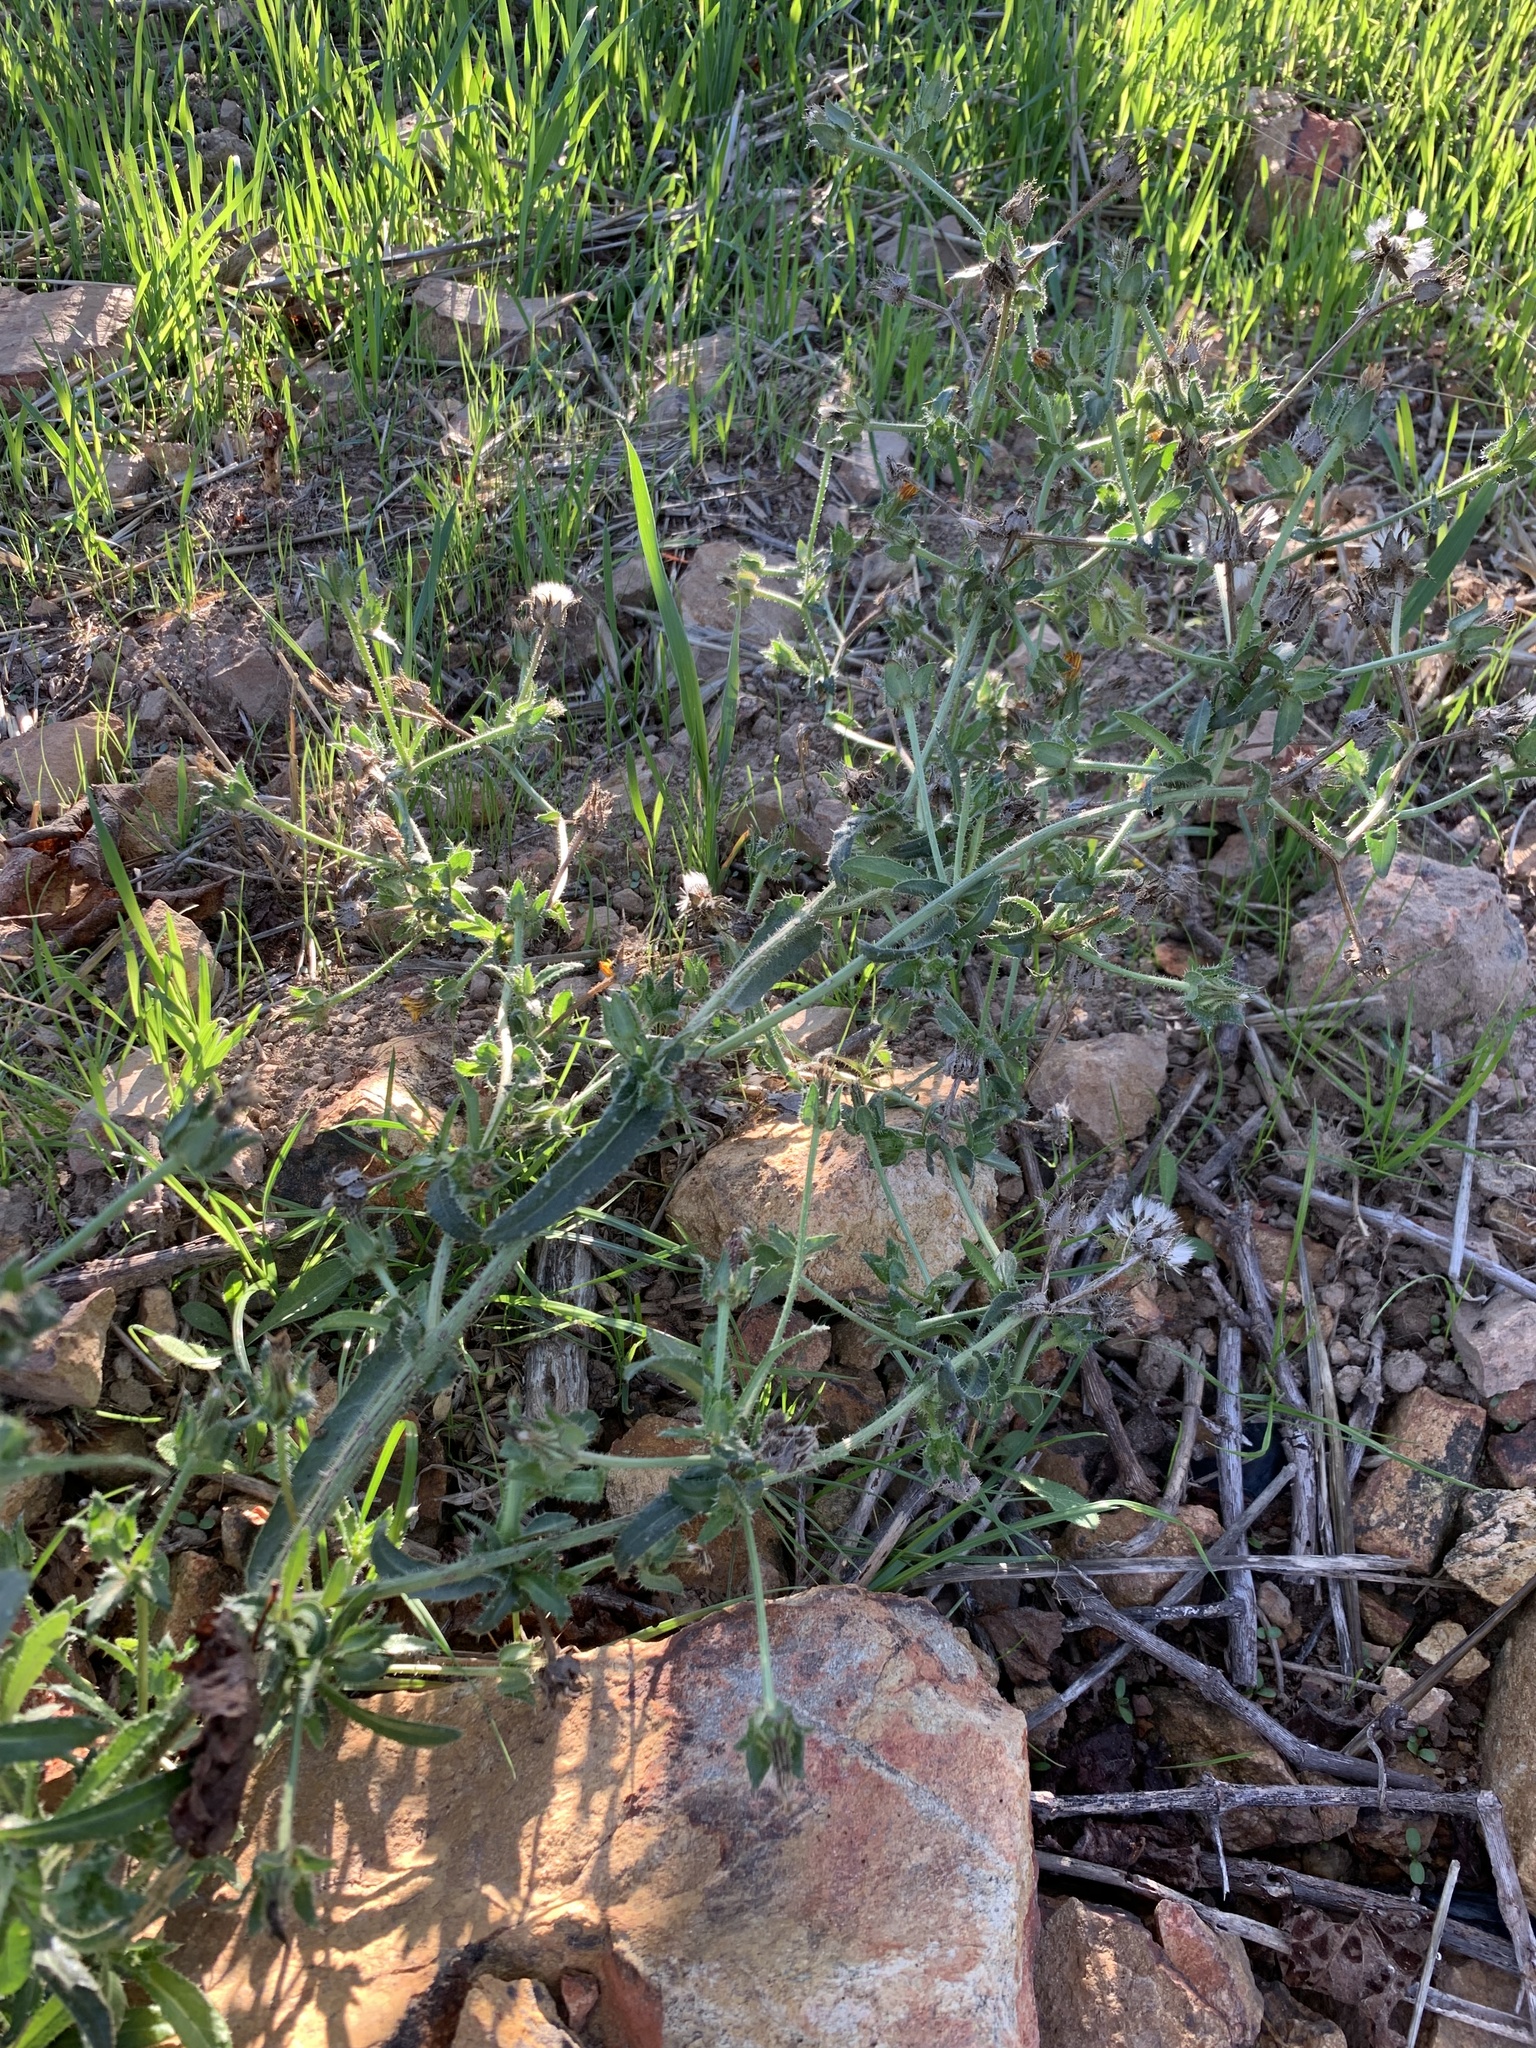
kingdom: Plantae
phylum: Tracheophyta
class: Magnoliopsida
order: Asterales
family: Asteraceae
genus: Helminthotheca
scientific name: Helminthotheca echioides
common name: Ox-tongue
